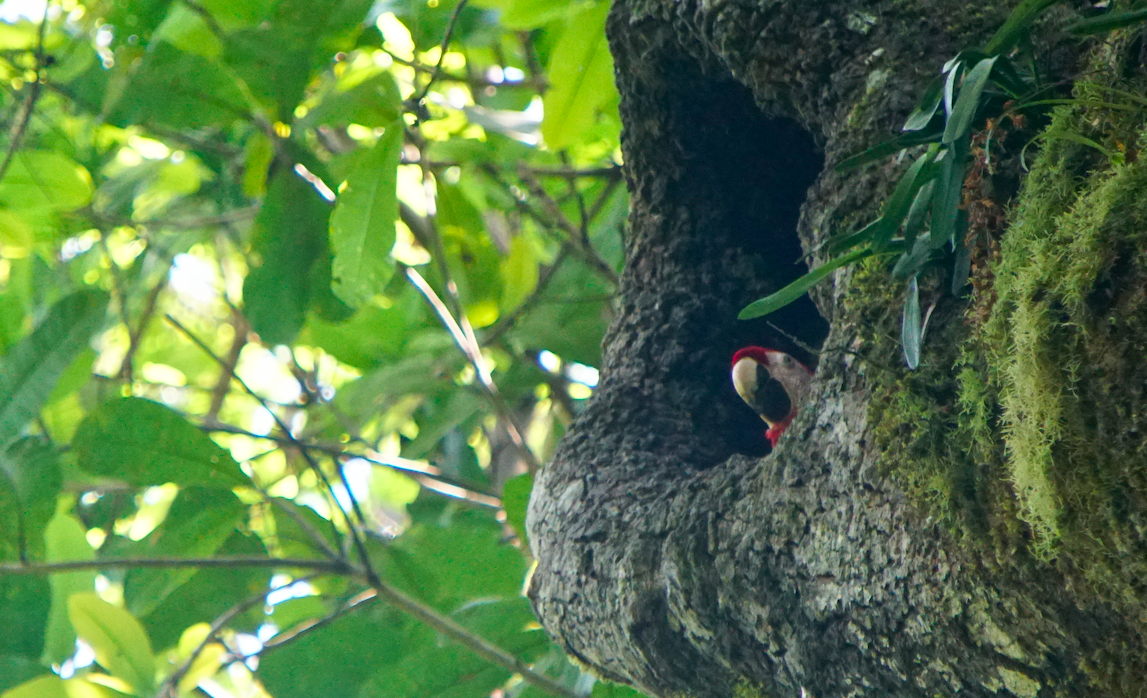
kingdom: Animalia
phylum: Chordata
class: Aves
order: Psittaciformes
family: Psittacidae
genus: Ara
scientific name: Ara macao
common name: Scarlet macaw
